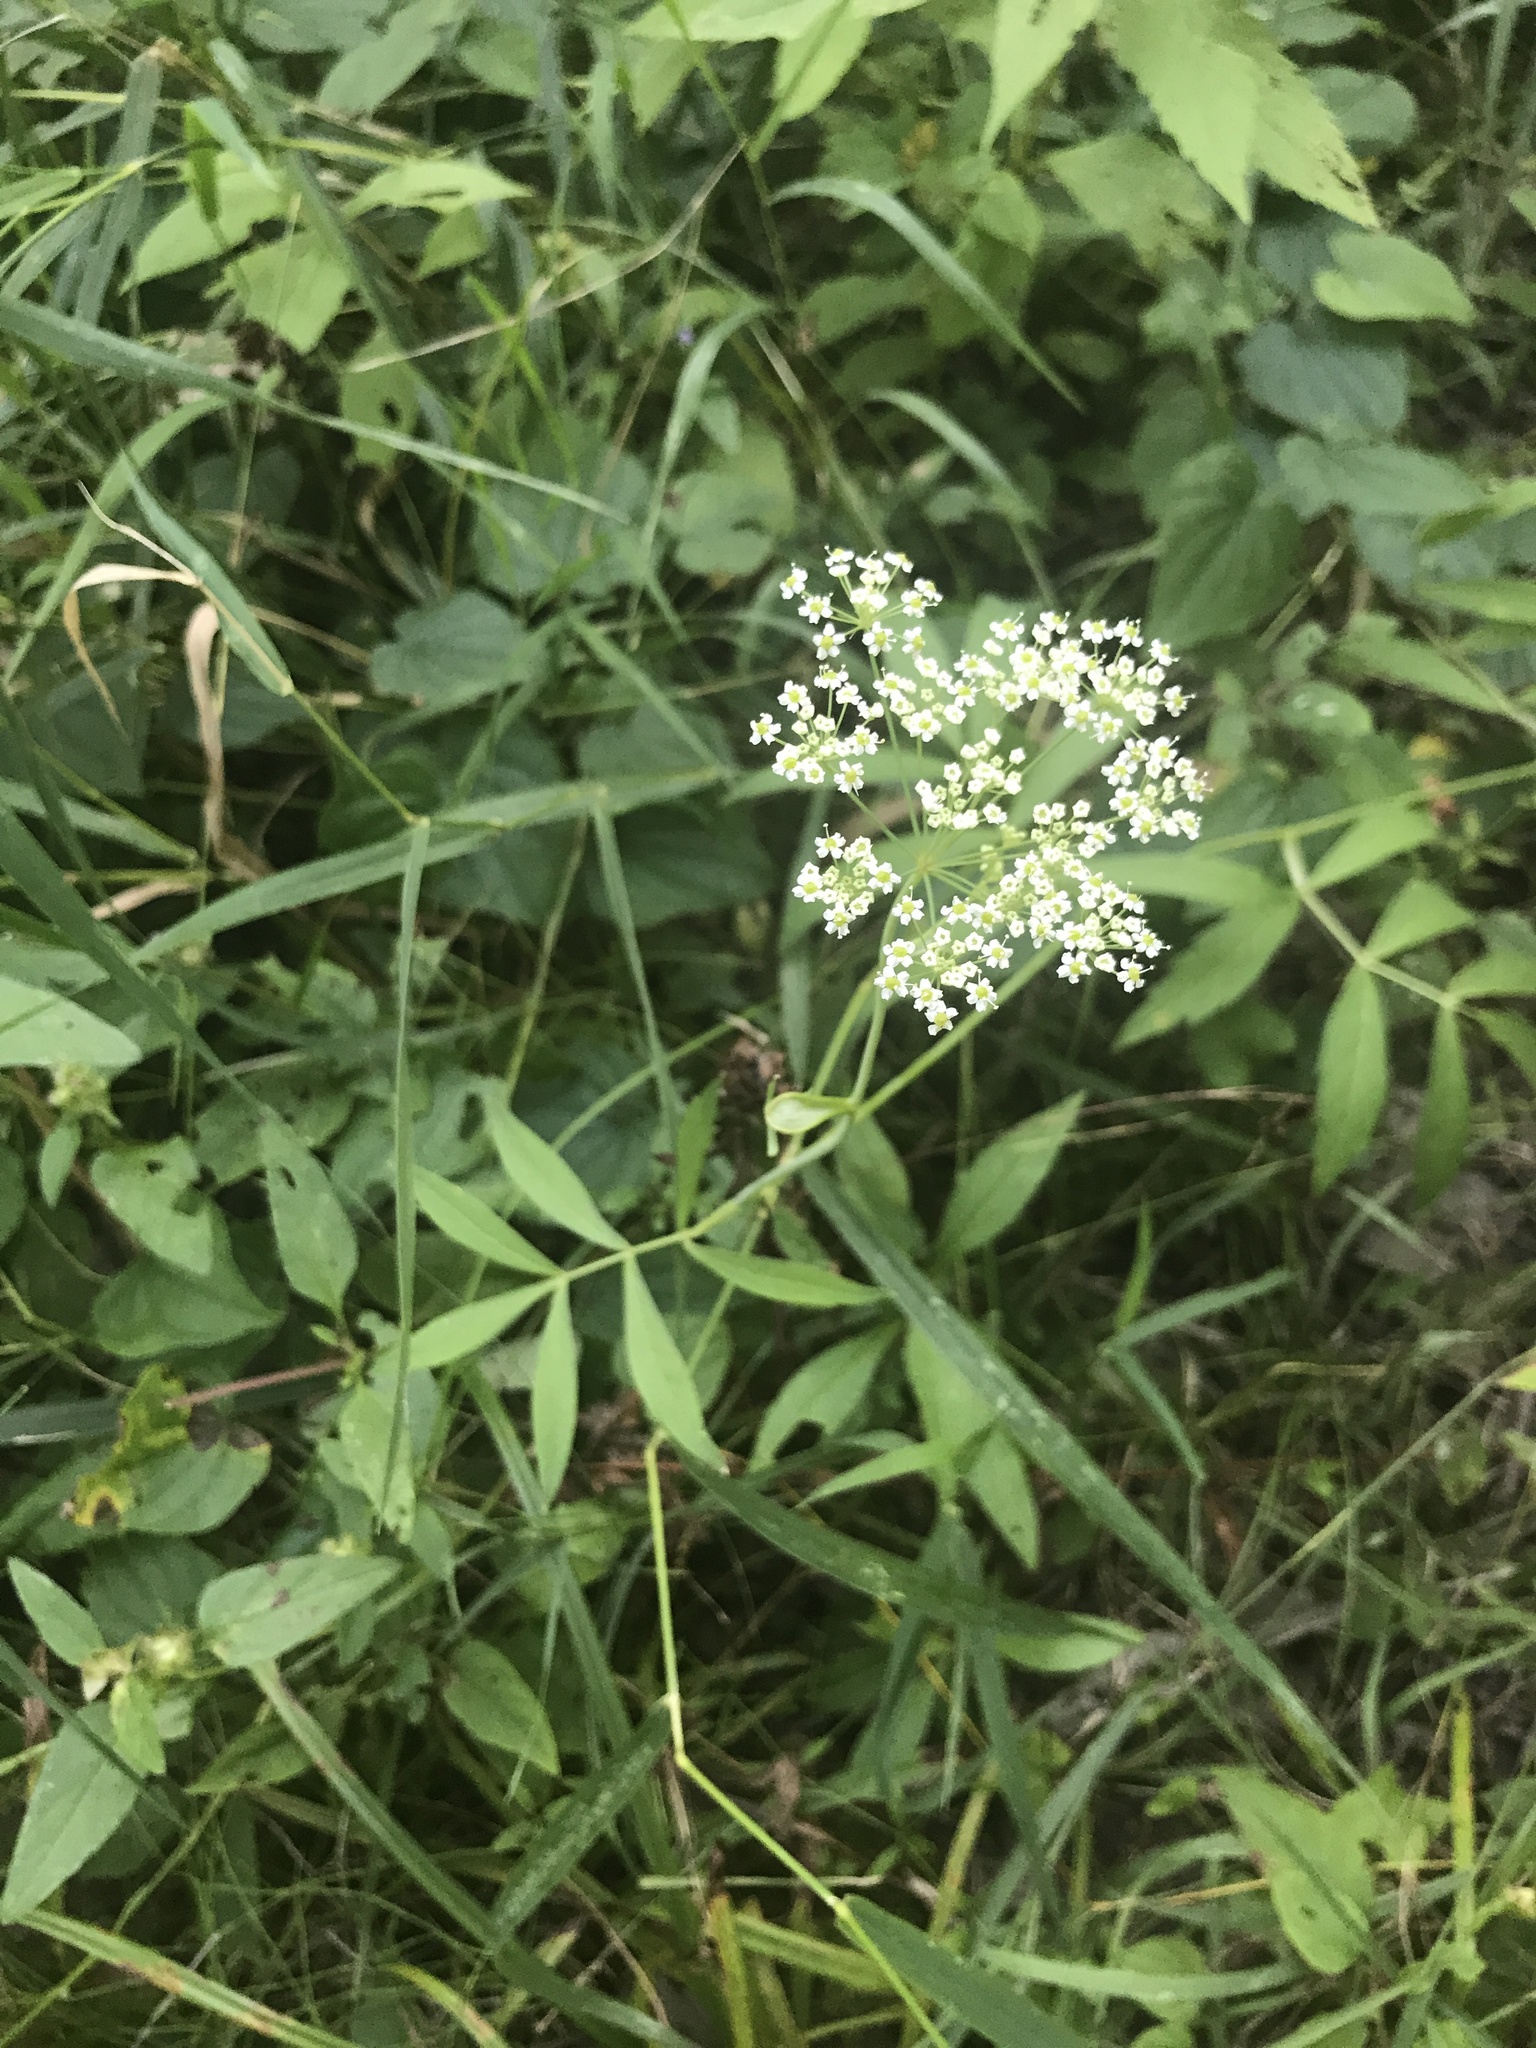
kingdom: Plantae
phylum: Tracheophyta
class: Magnoliopsida
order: Apiales
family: Apiaceae
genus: Sium
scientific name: Sium suave
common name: Hemlock water-parsnip
